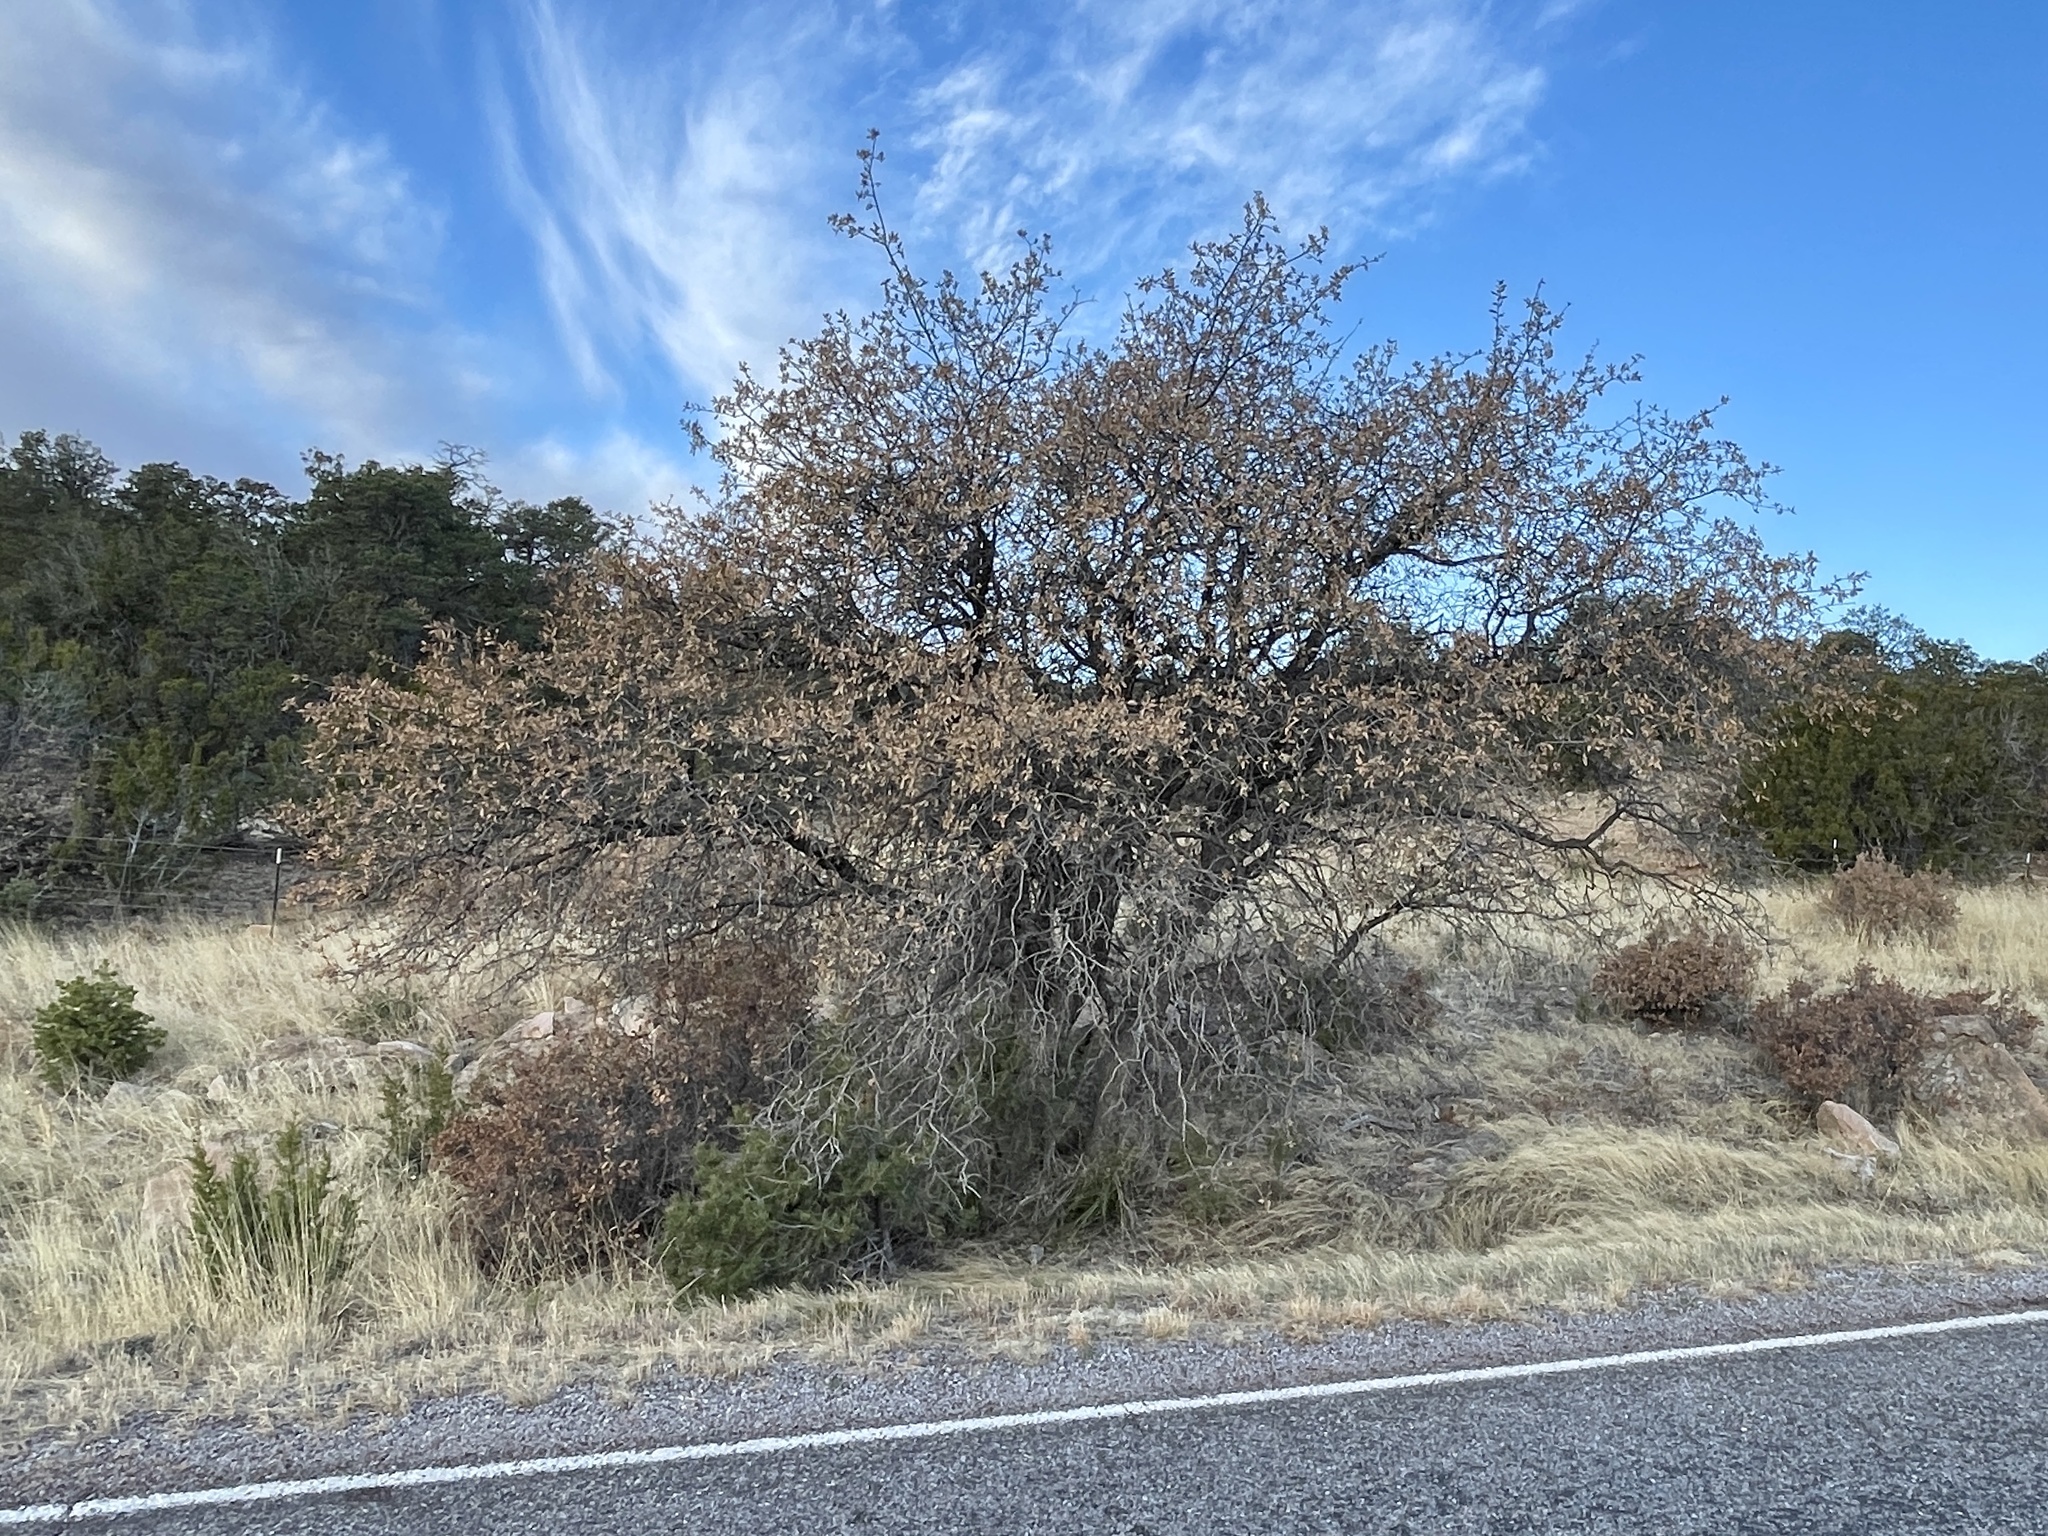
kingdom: Plantae
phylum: Tracheophyta
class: Magnoliopsida
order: Fagales
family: Fagaceae
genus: Quercus
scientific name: Quercus undulata
